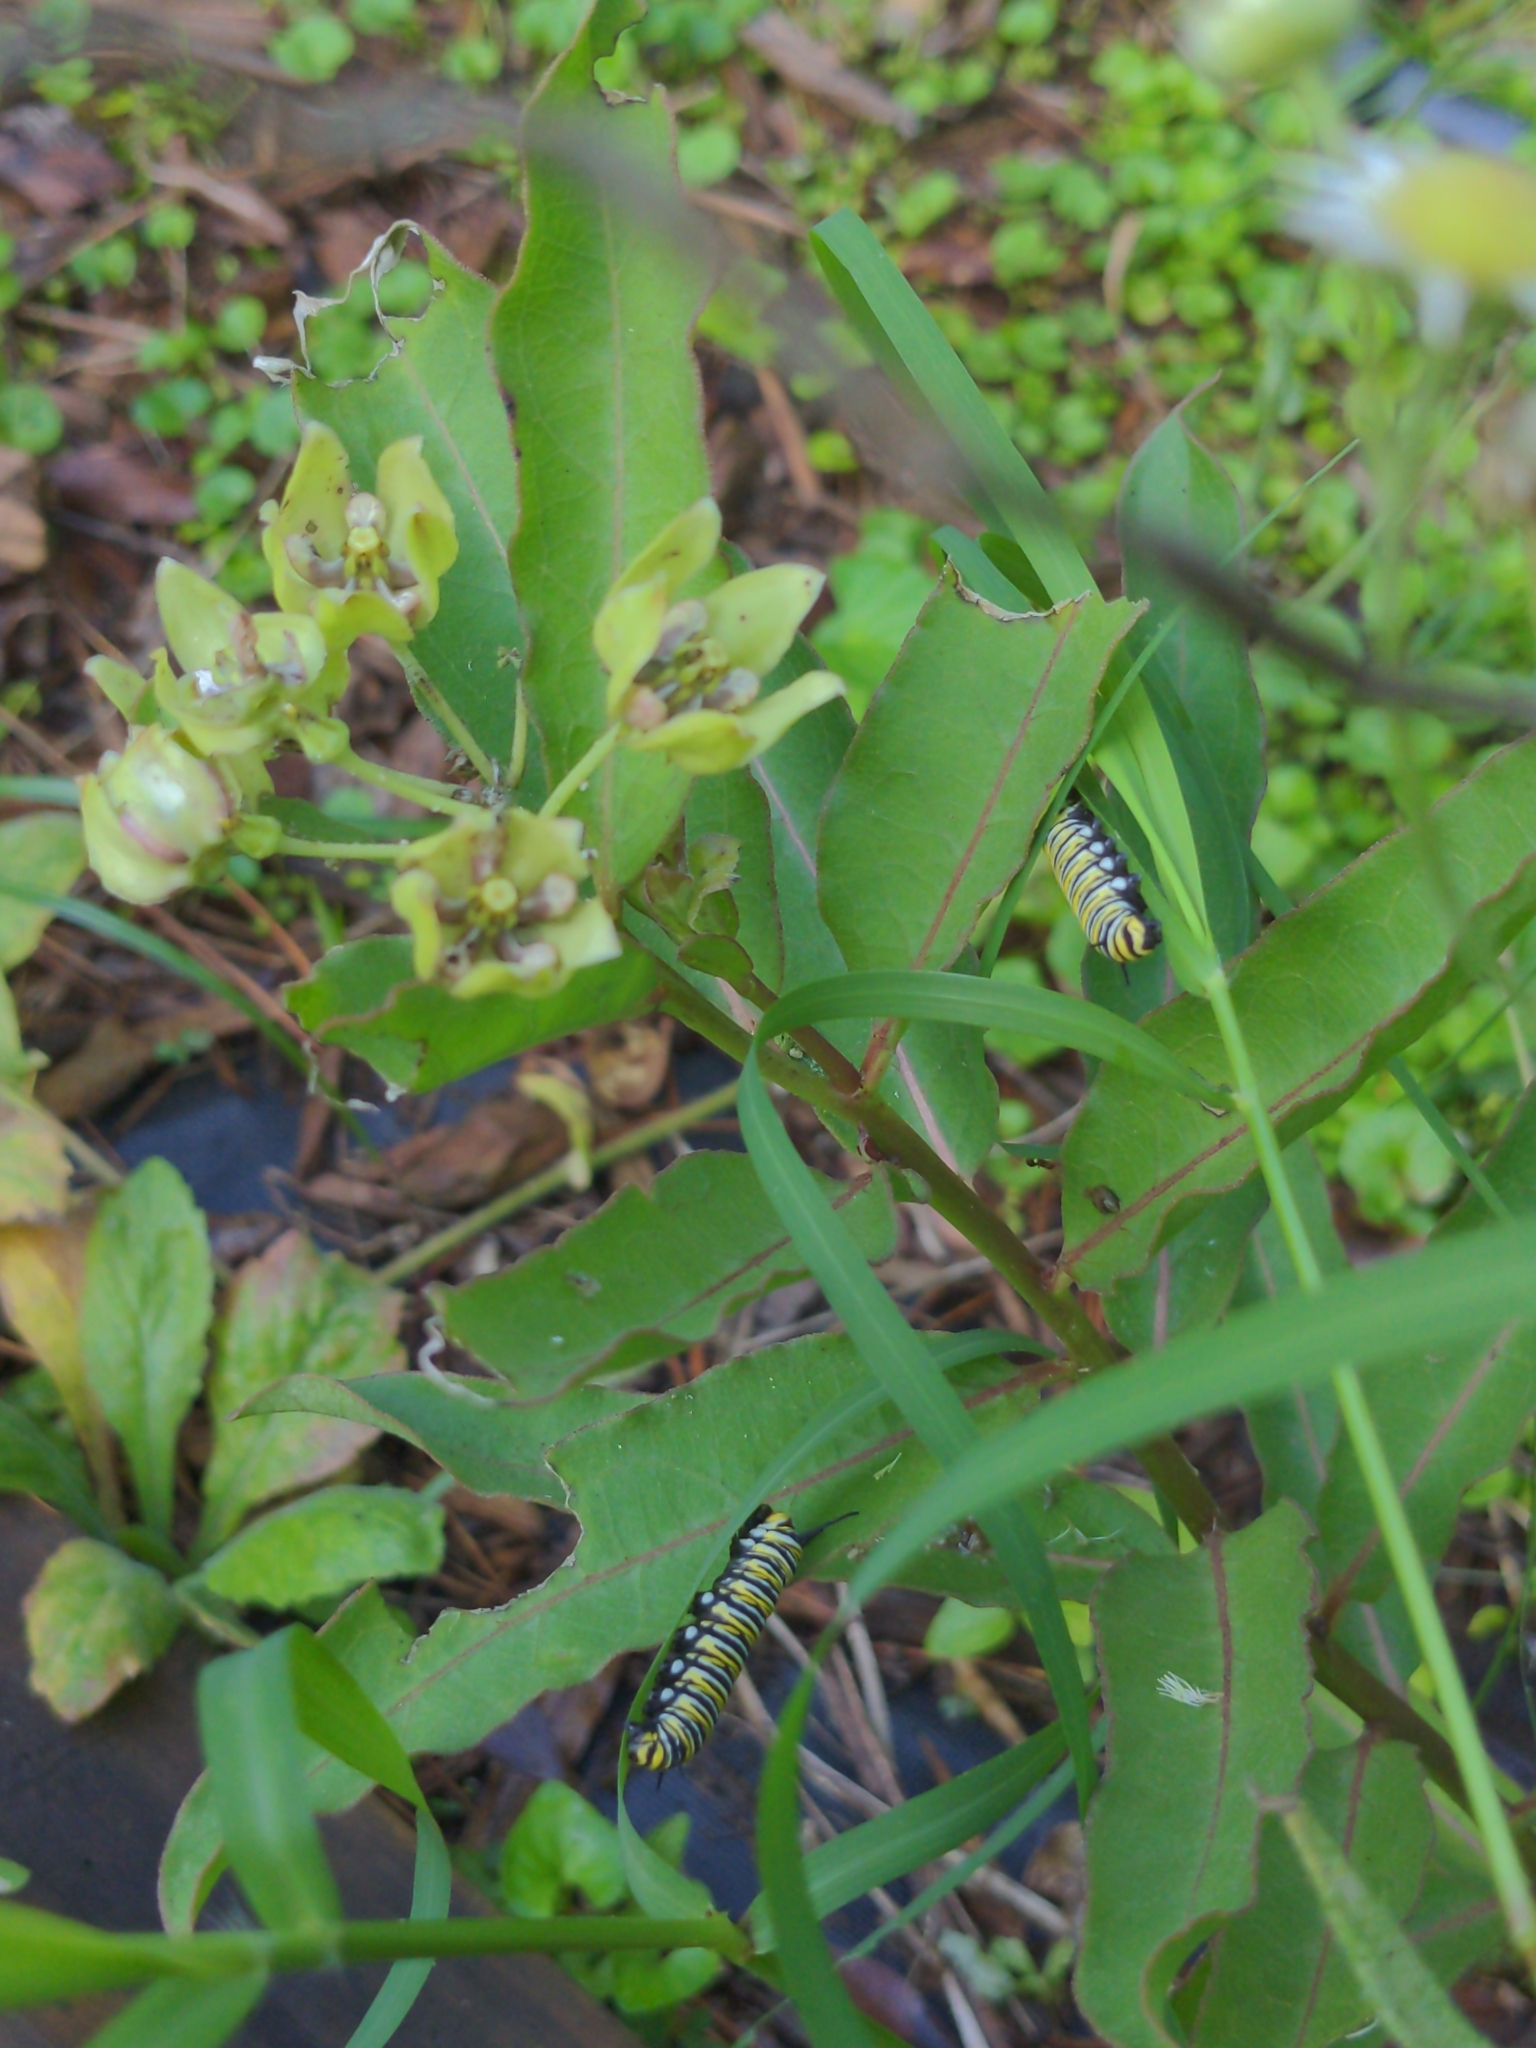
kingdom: Animalia
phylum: Arthropoda
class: Insecta
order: Lepidoptera
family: Nymphalidae
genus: Danaus
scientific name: Danaus plexippus
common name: Monarch
